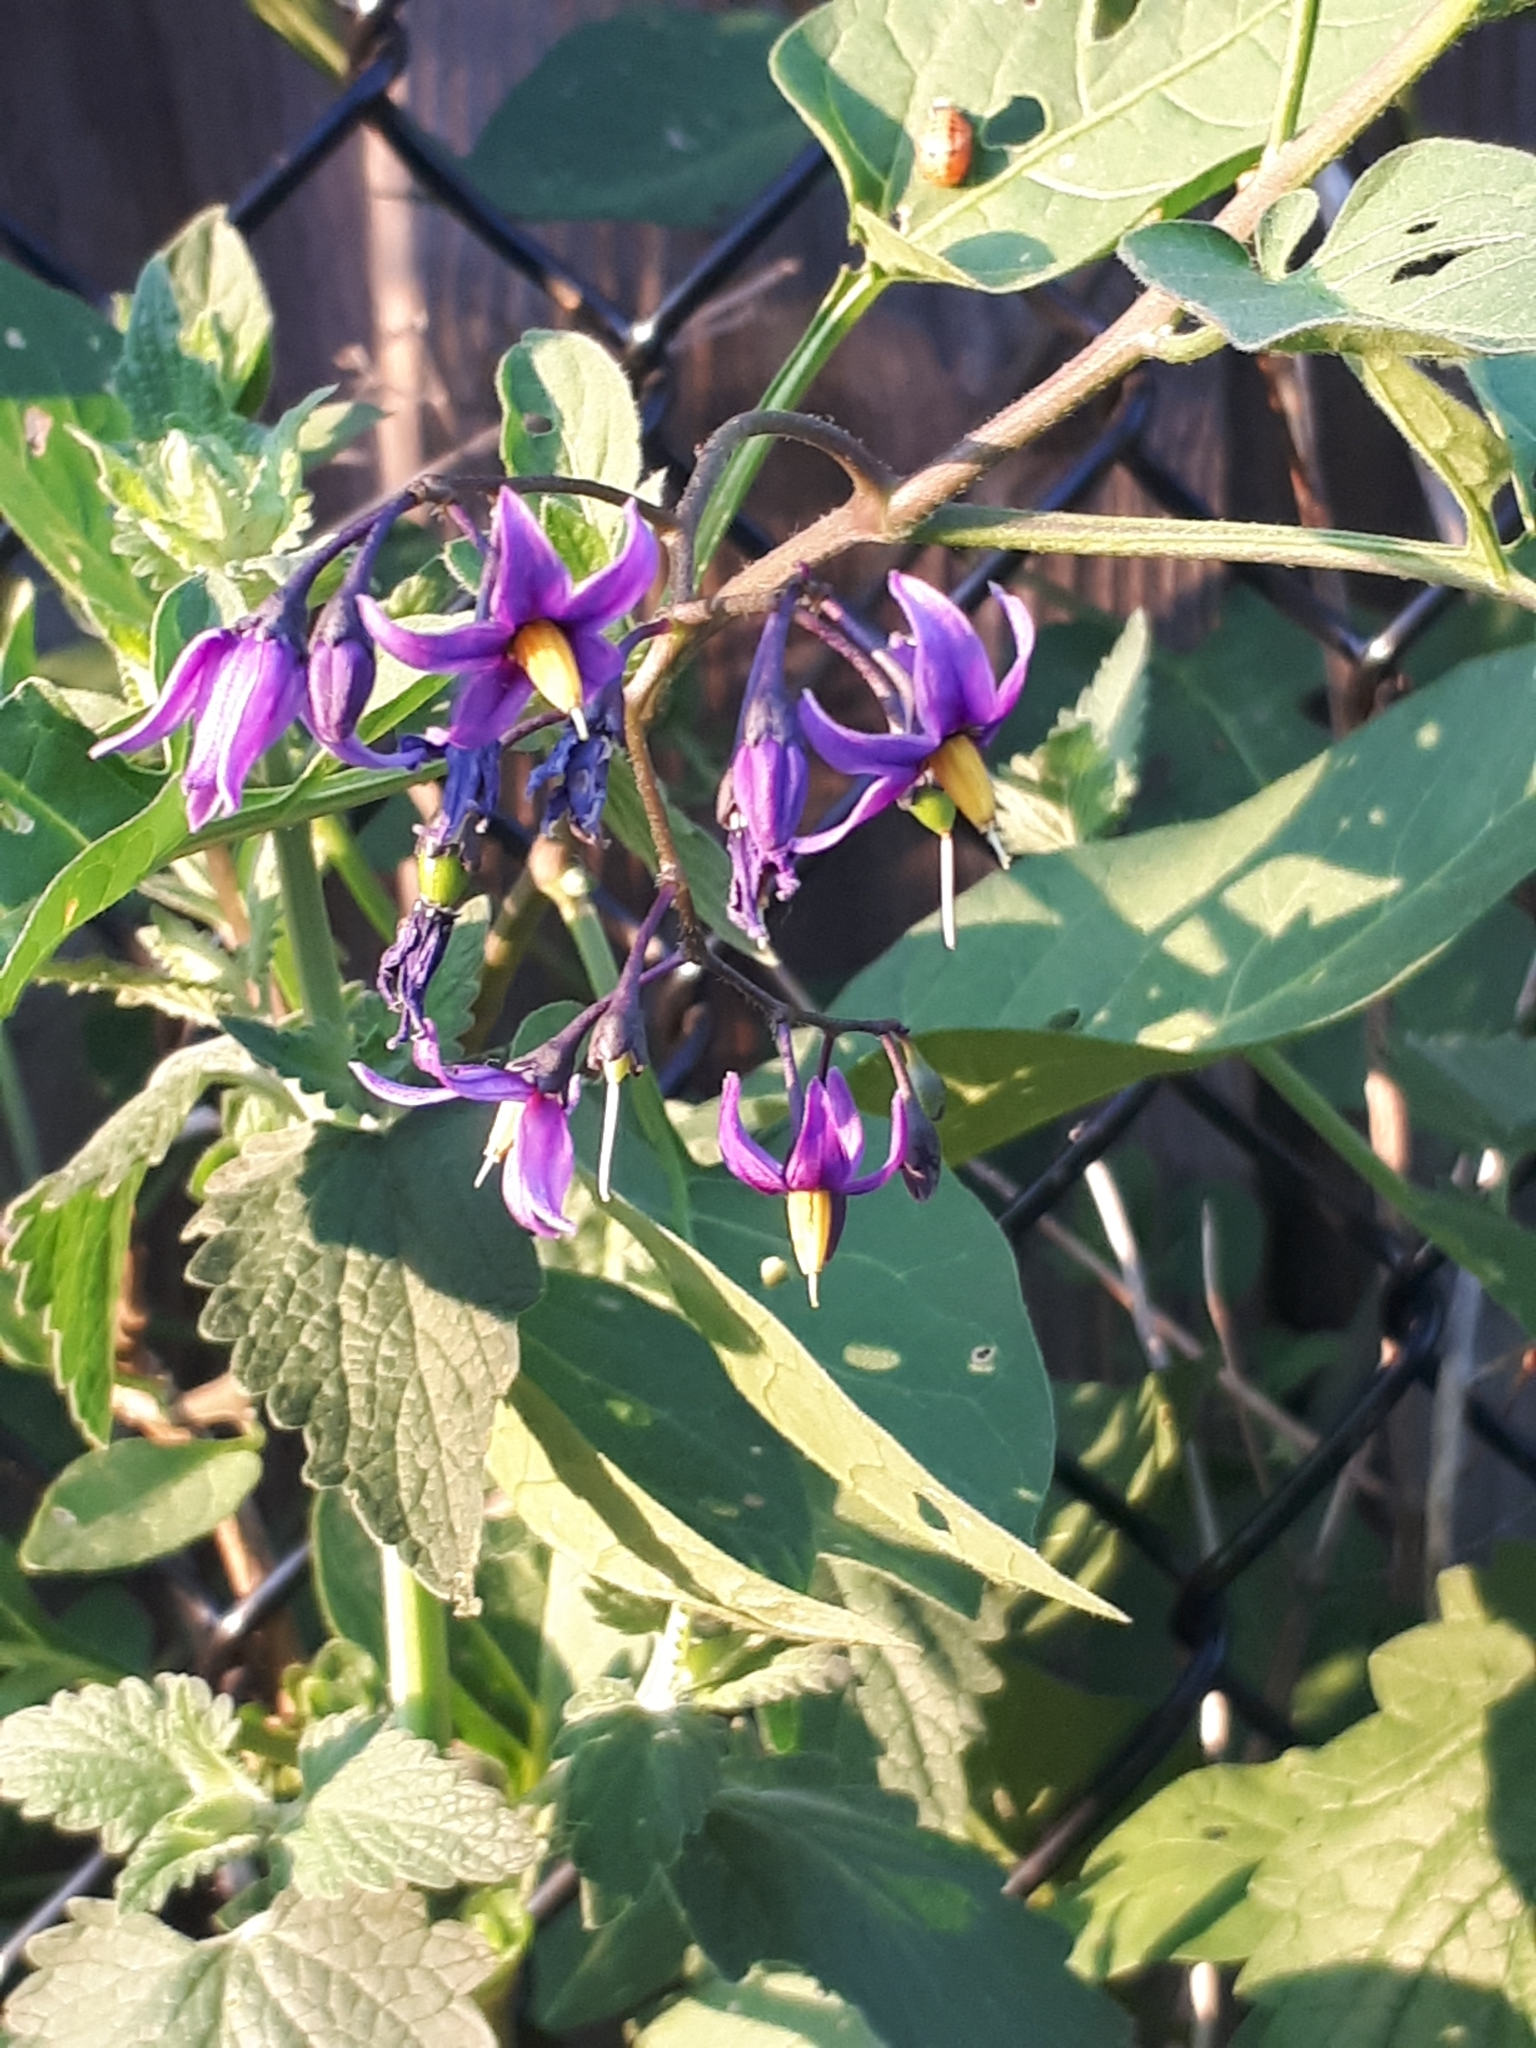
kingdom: Plantae
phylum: Tracheophyta
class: Magnoliopsida
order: Solanales
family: Solanaceae
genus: Solanum
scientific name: Solanum dulcamara
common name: Climbing nightshade
